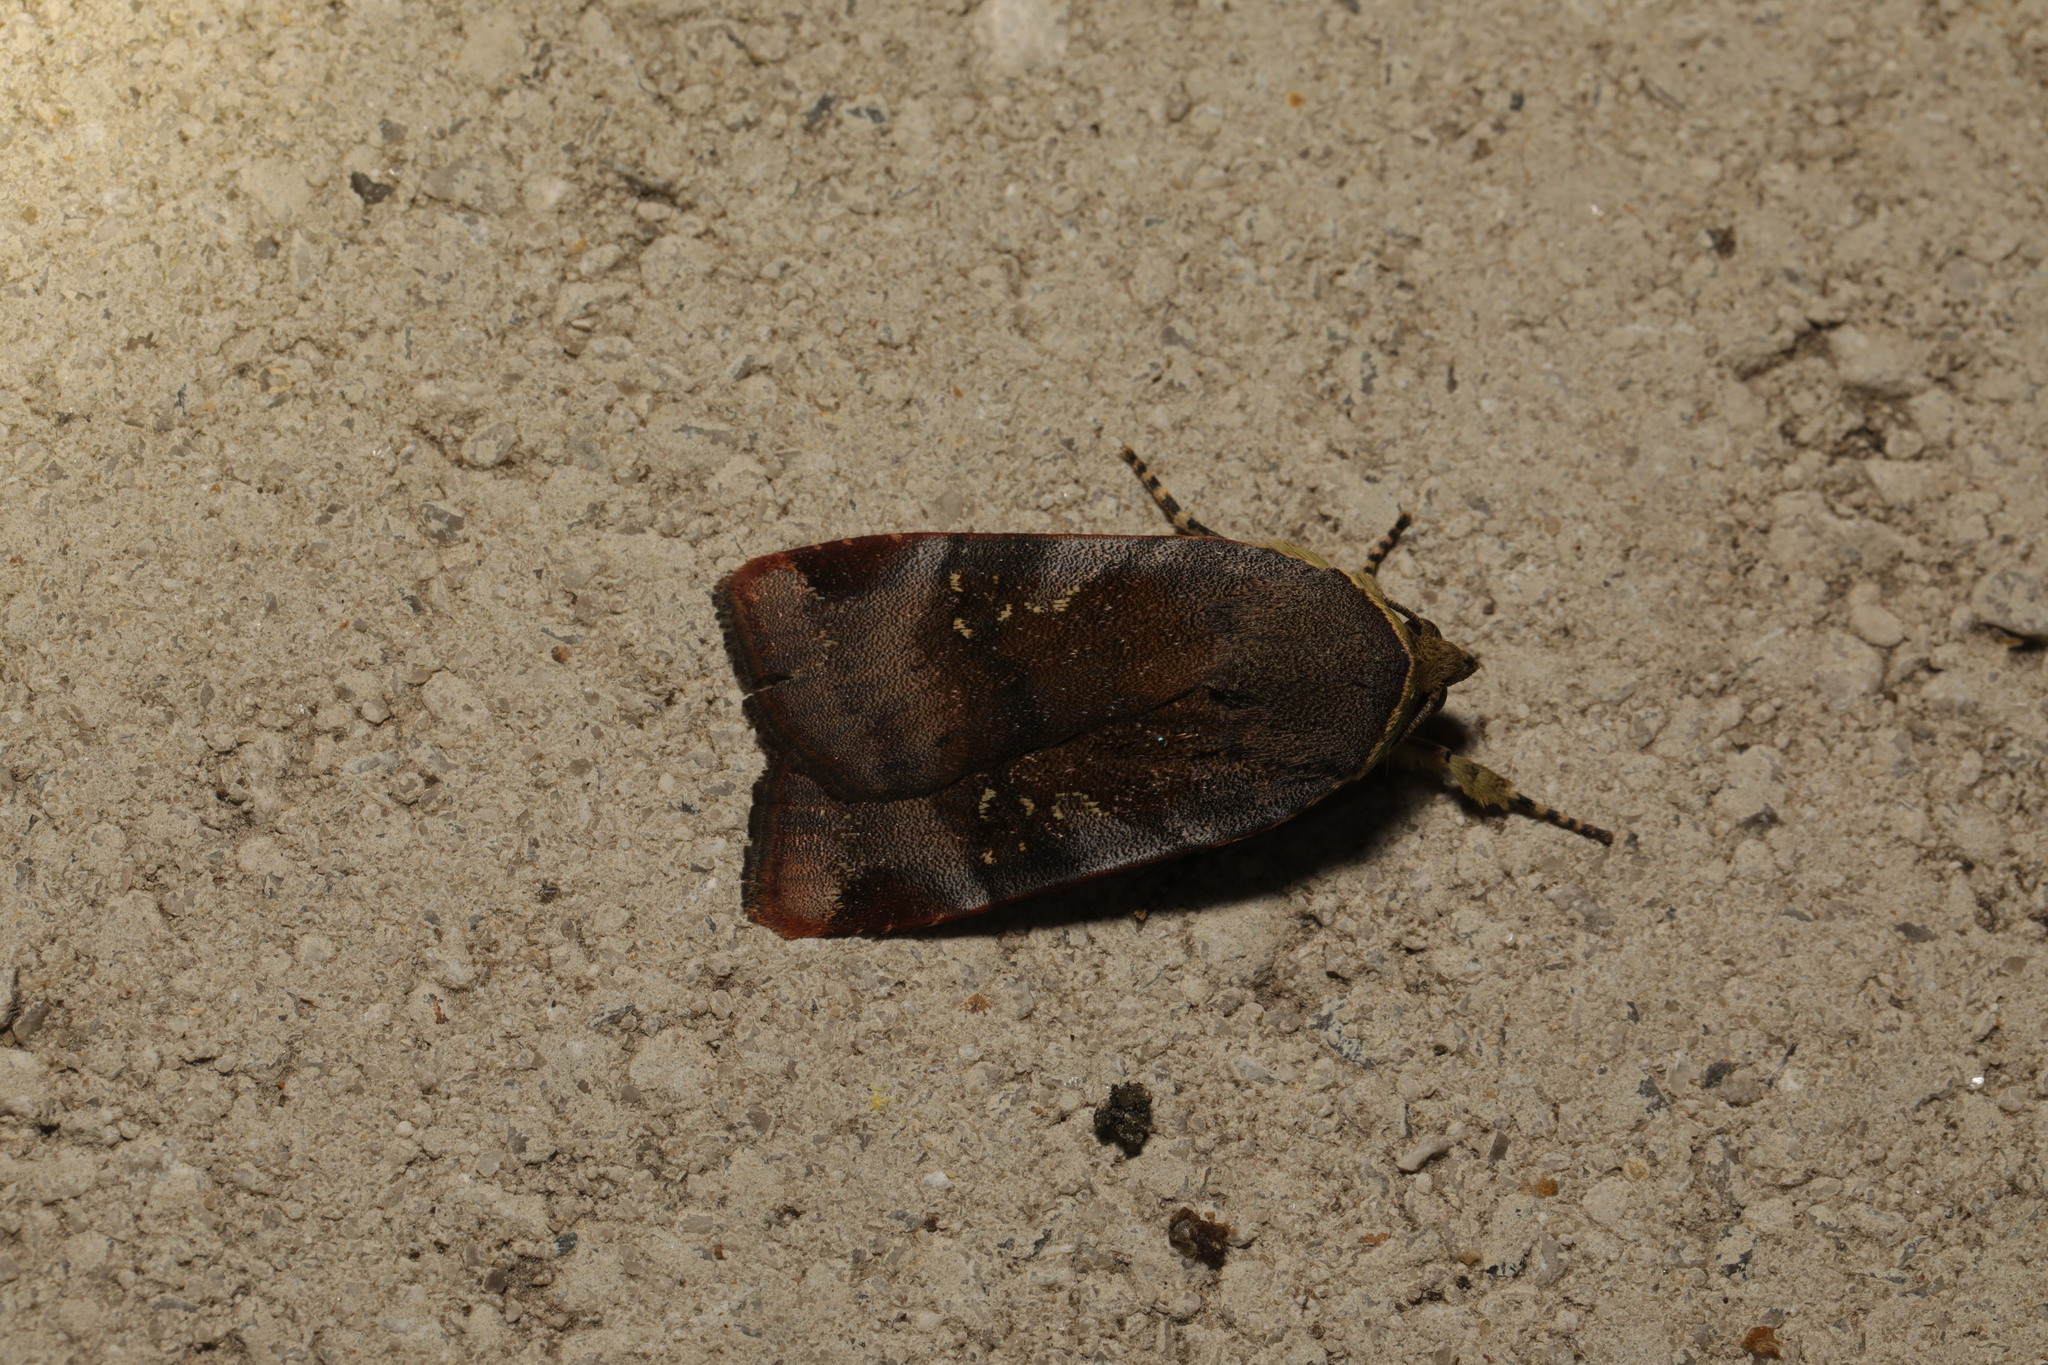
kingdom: Animalia
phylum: Arthropoda
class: Insecta
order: Lepidoptera
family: Noctuidae
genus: Noctua
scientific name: Noctua janthe
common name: Lesser broad-bordered yellow underwing
